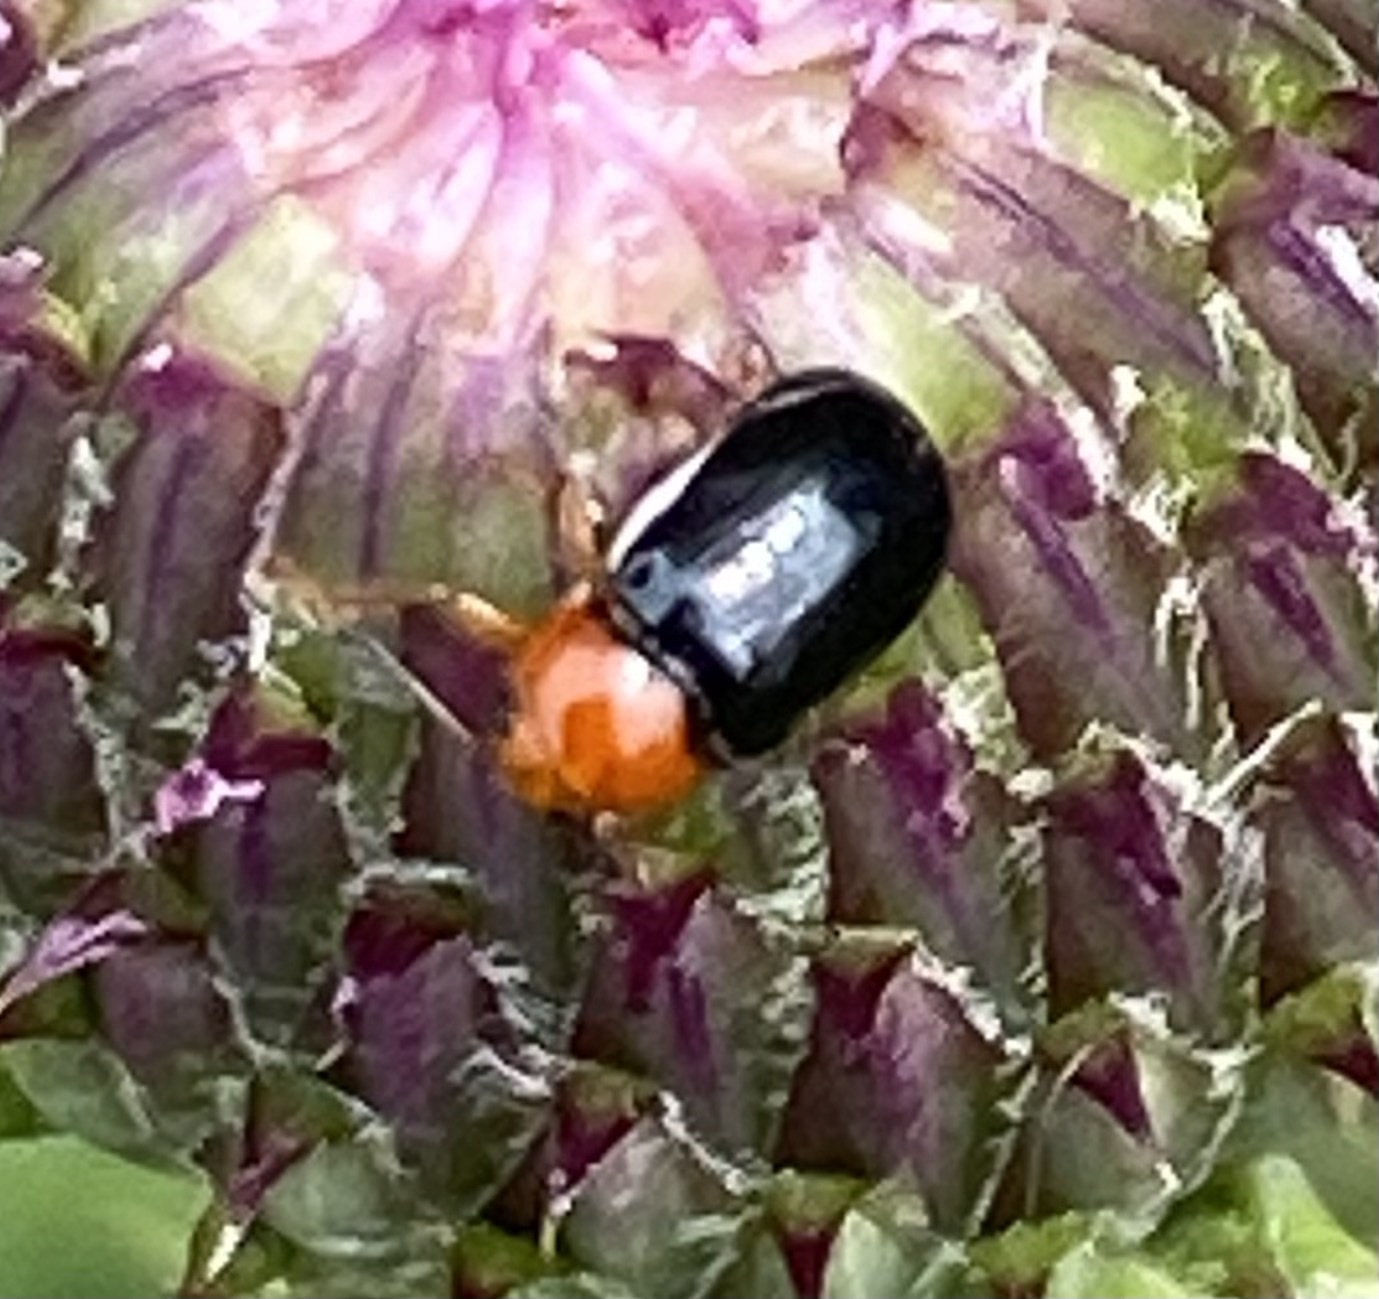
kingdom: Animalia
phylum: Arthropoda
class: Insecta
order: Coleoptera
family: Chrysomelidae
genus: Cryptocephalus
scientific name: Cryptocephalus rufipes
